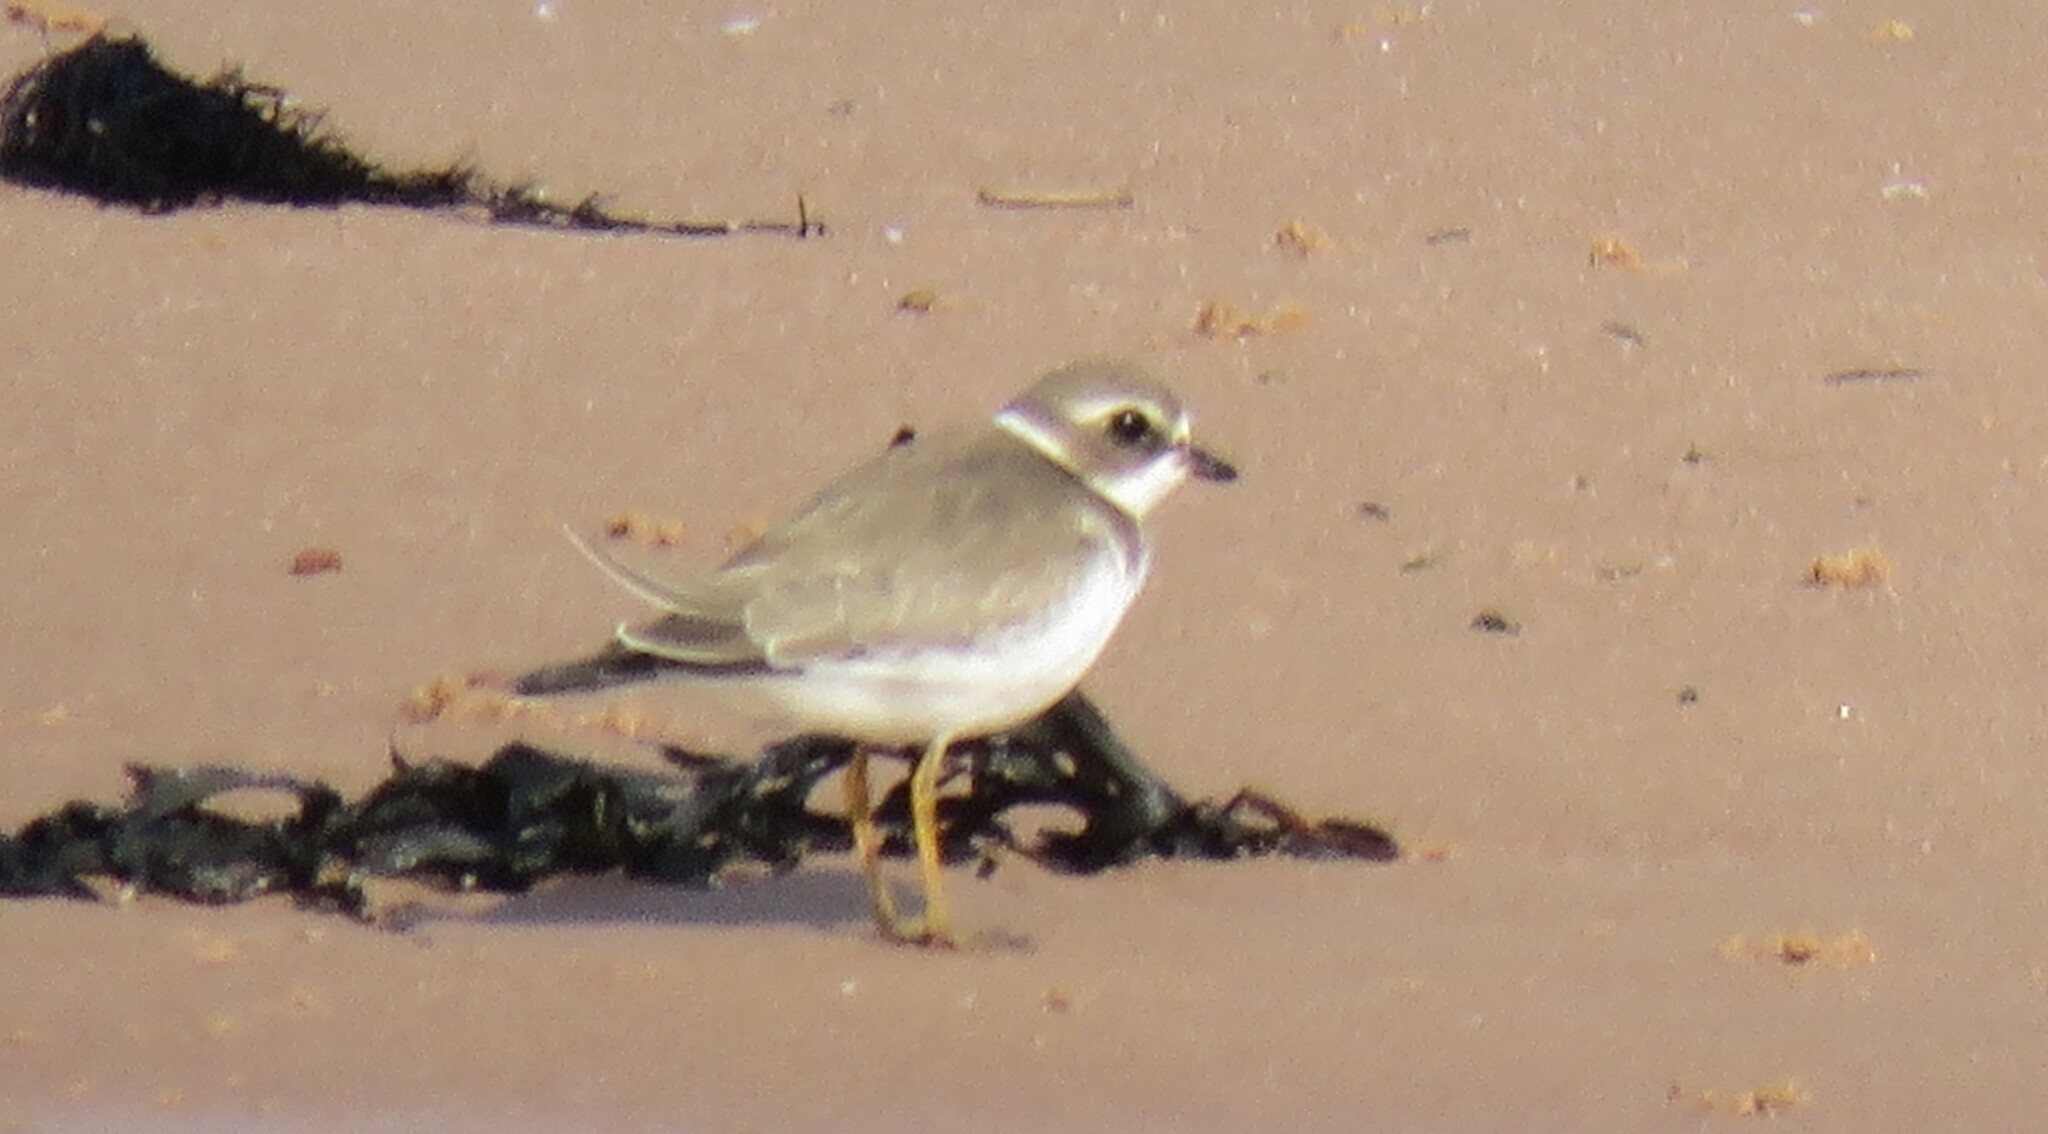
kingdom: Animalia
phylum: Chordata
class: Aves
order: Charadriiformes
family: Charadriidae
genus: Charadrius
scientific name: Charadrius semipalmatus
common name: Semipalmated plover
